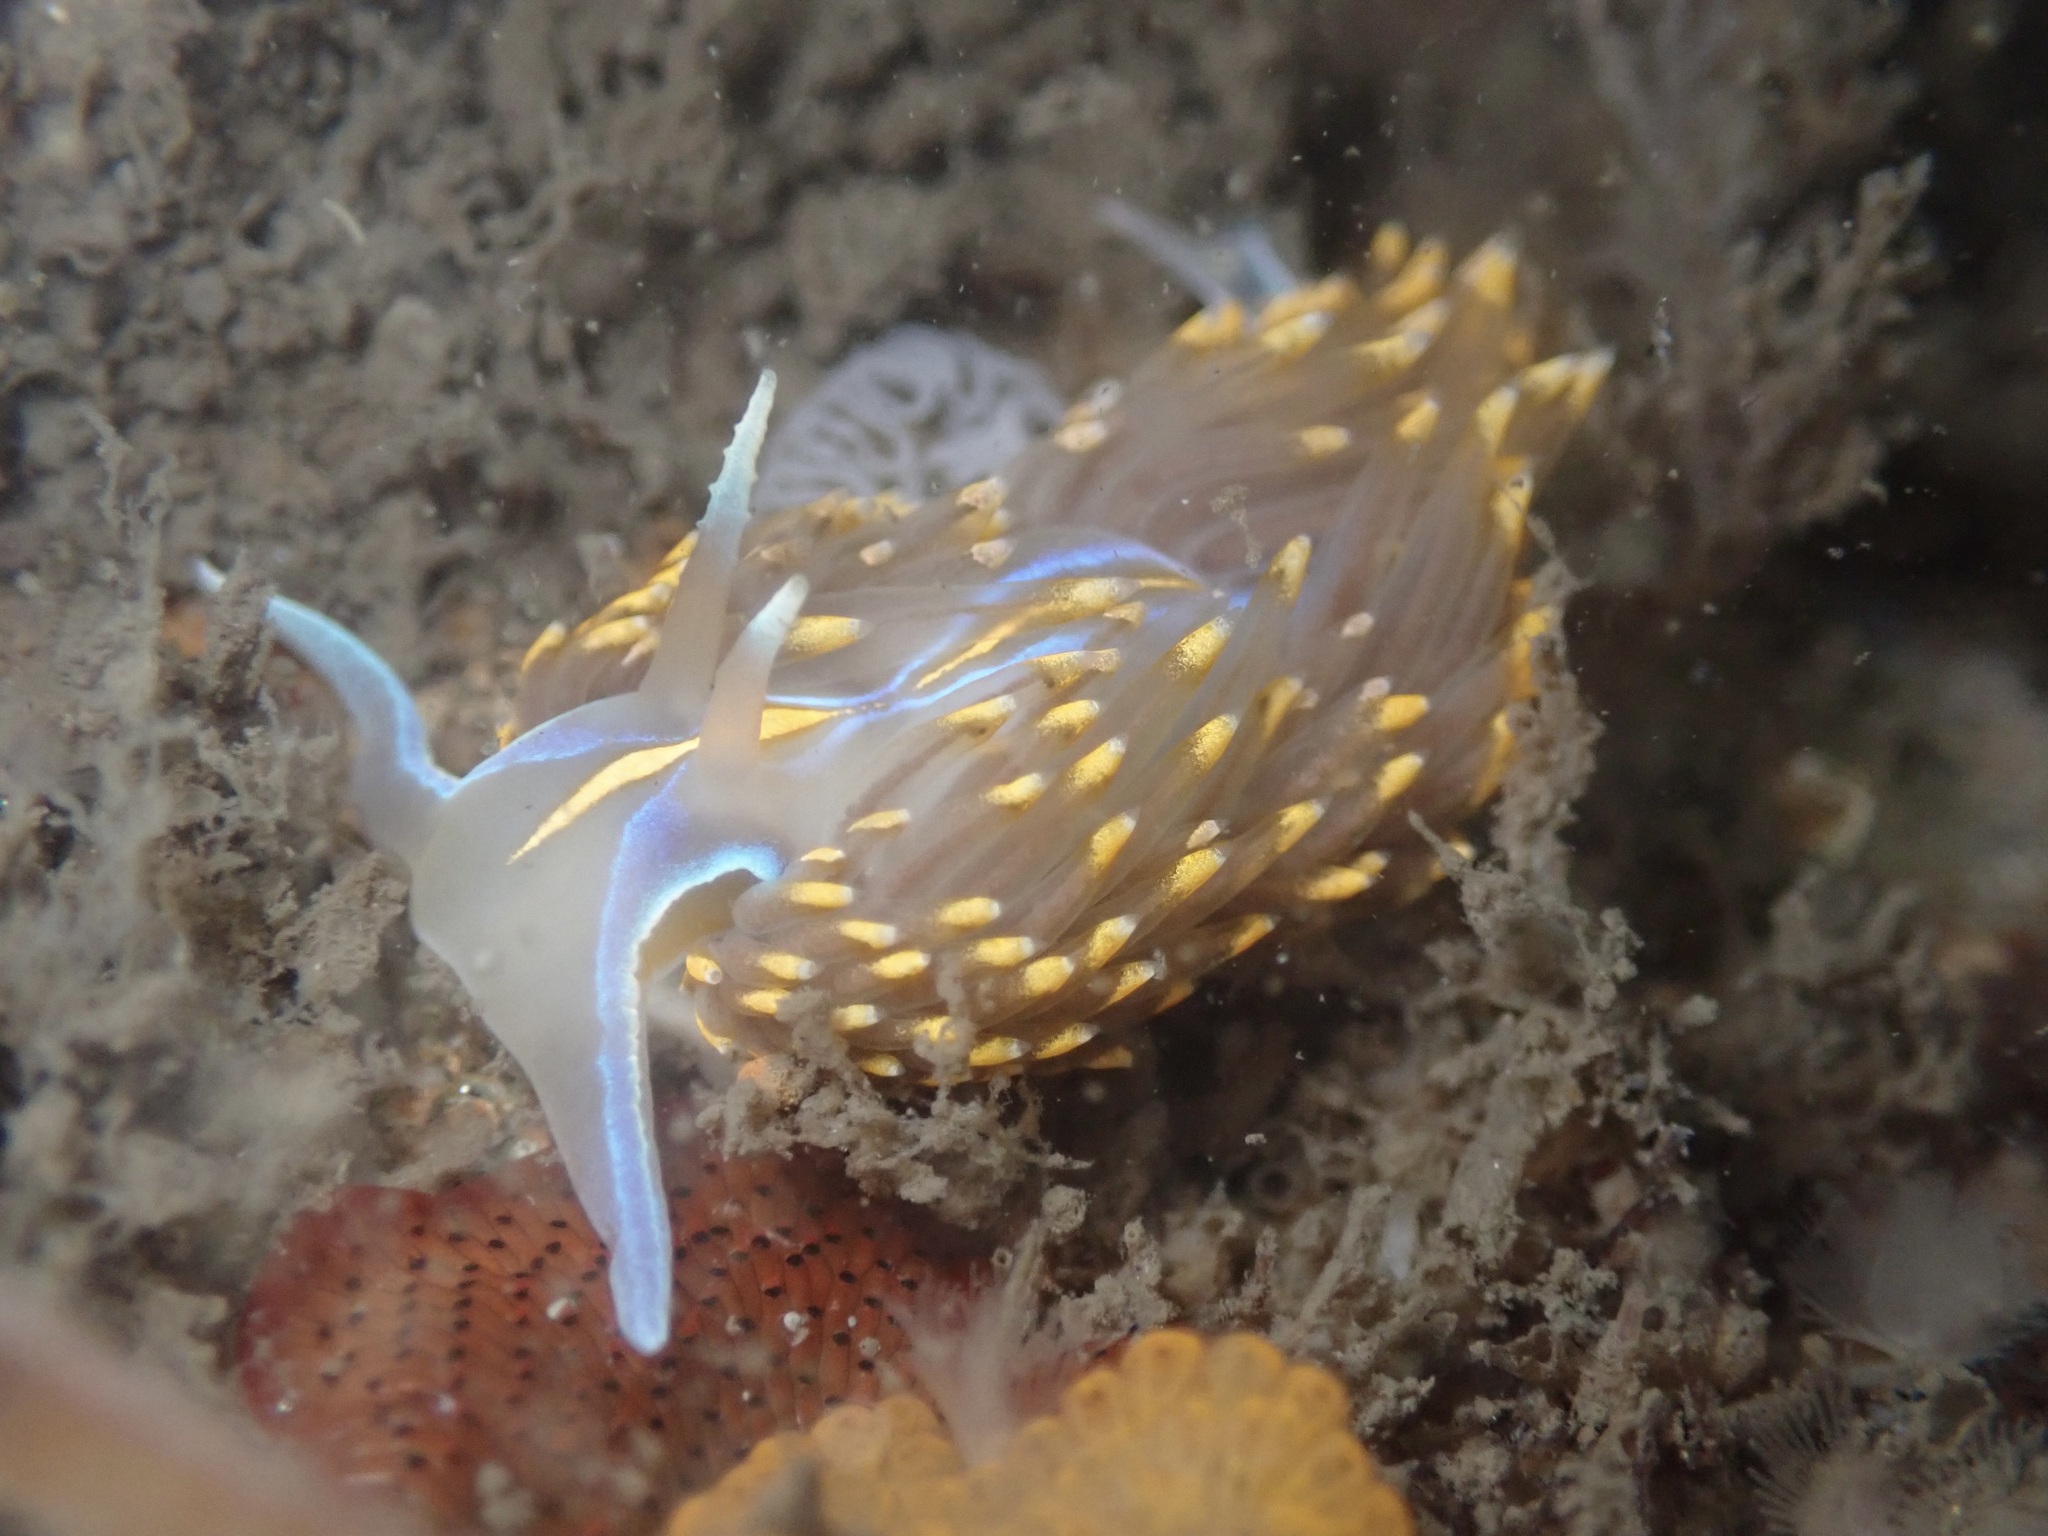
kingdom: Animalia
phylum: Mollusca
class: Gastropoda
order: Nudibranchia
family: Myrrhinidae
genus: Hermissenda
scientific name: Hermissenda opalescens
